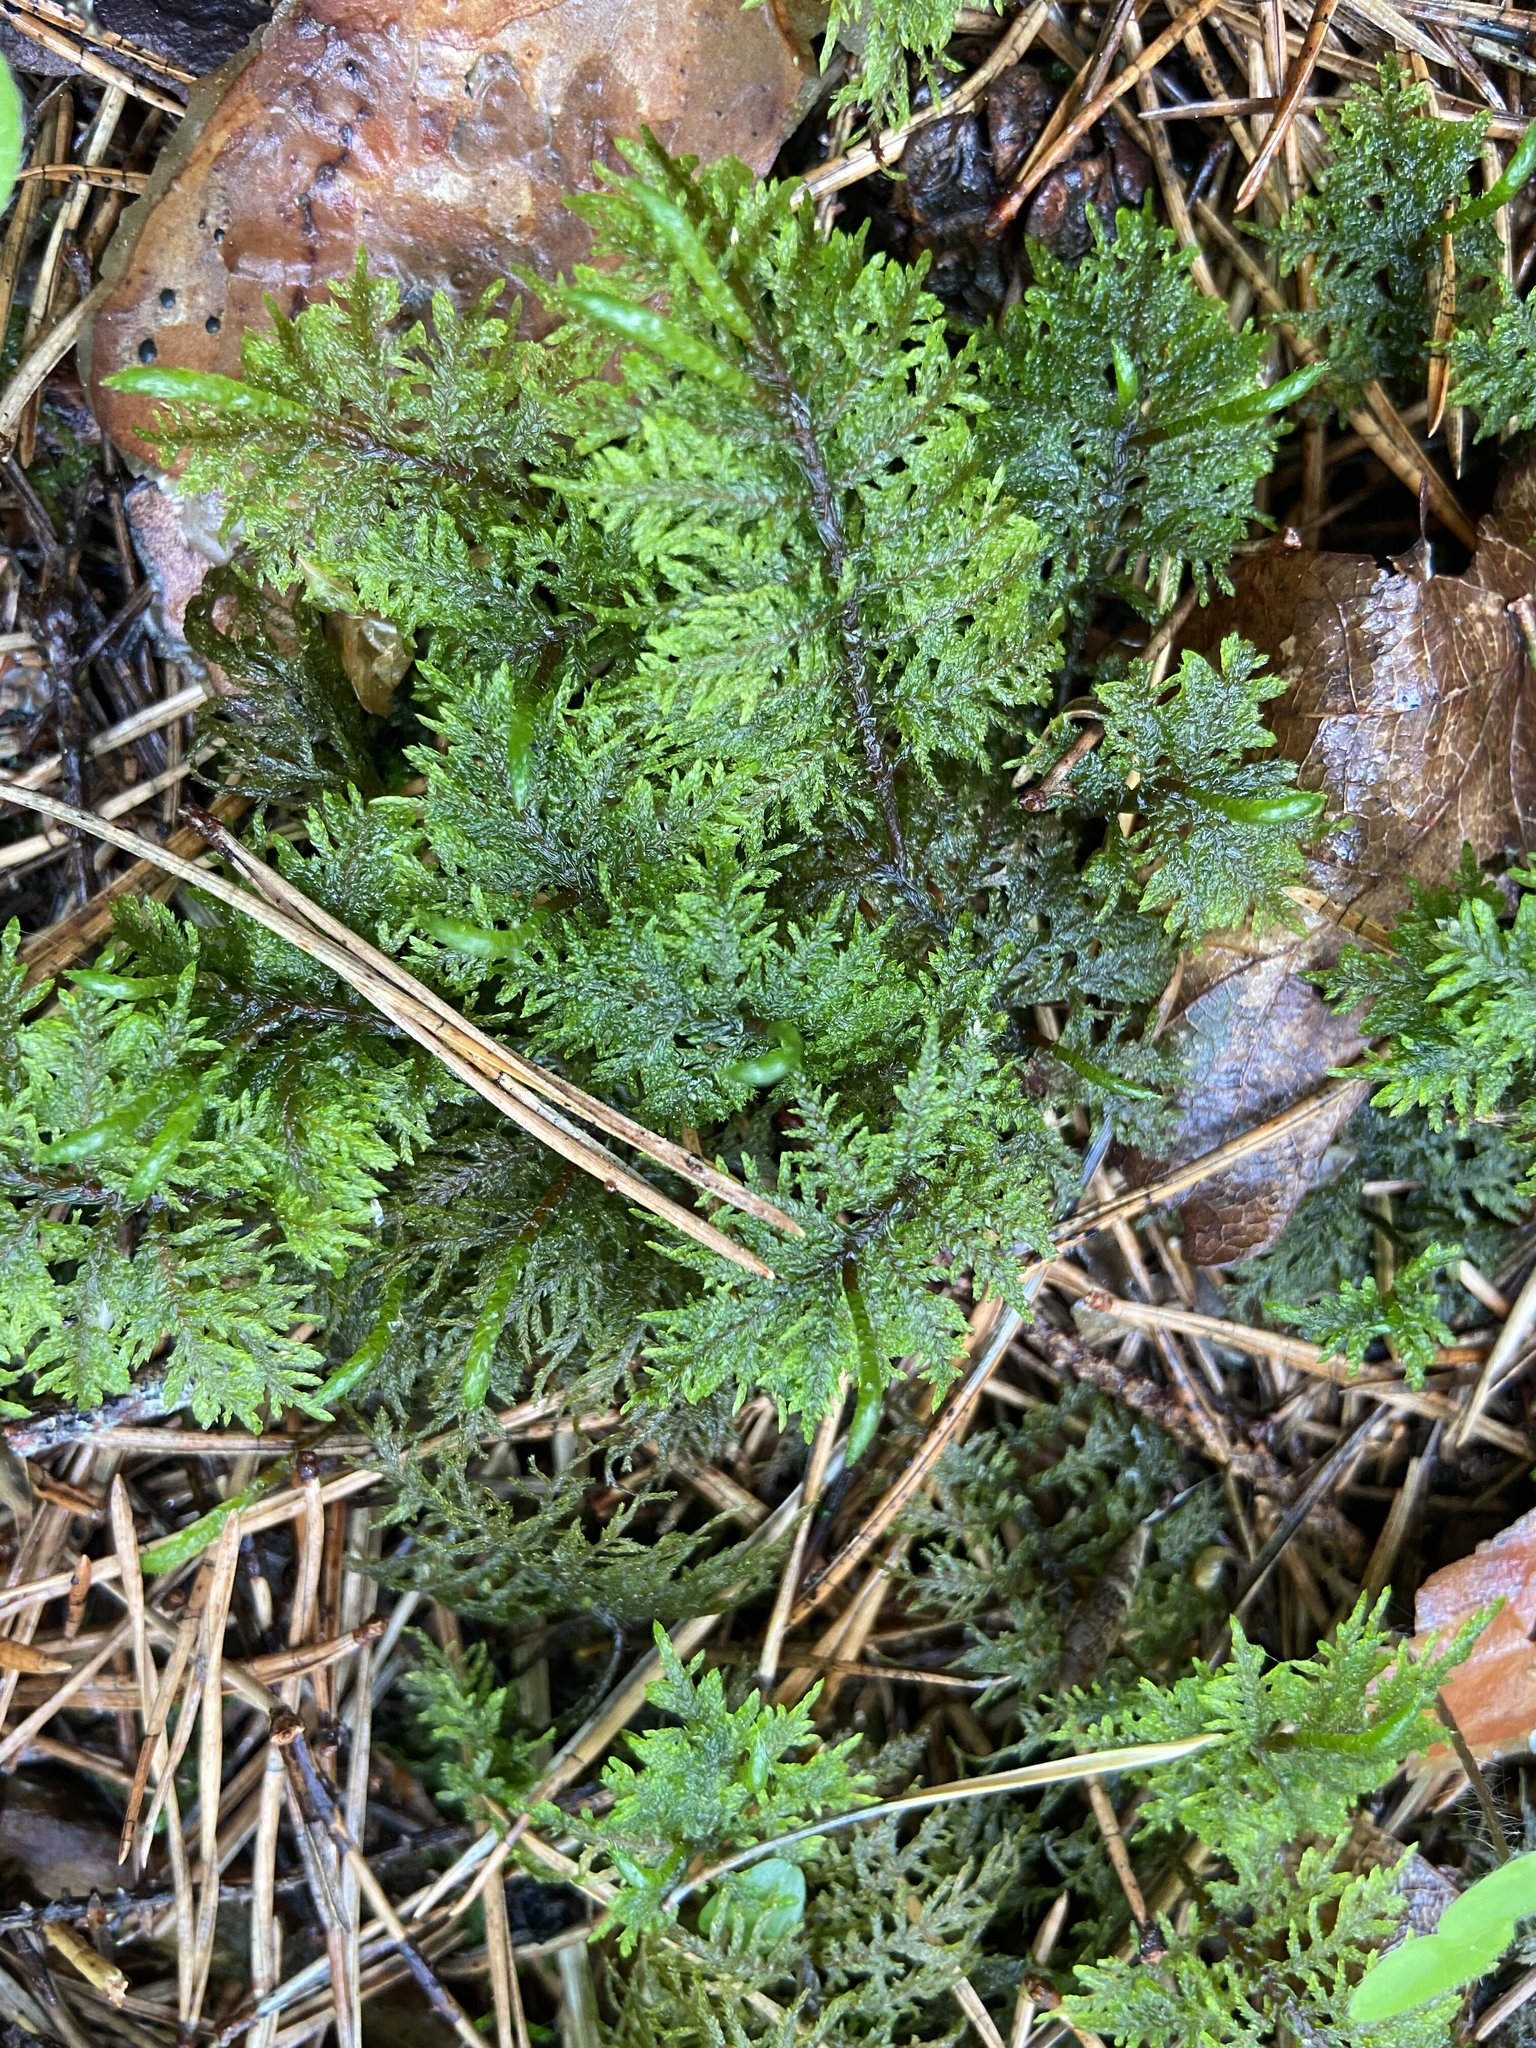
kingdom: Plantae
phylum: Bryophyta
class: Bryopsida
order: Hypnales
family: Hylocomiaceae
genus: Hylocomium
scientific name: Hylocomium splendens
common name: Stairstep moss
